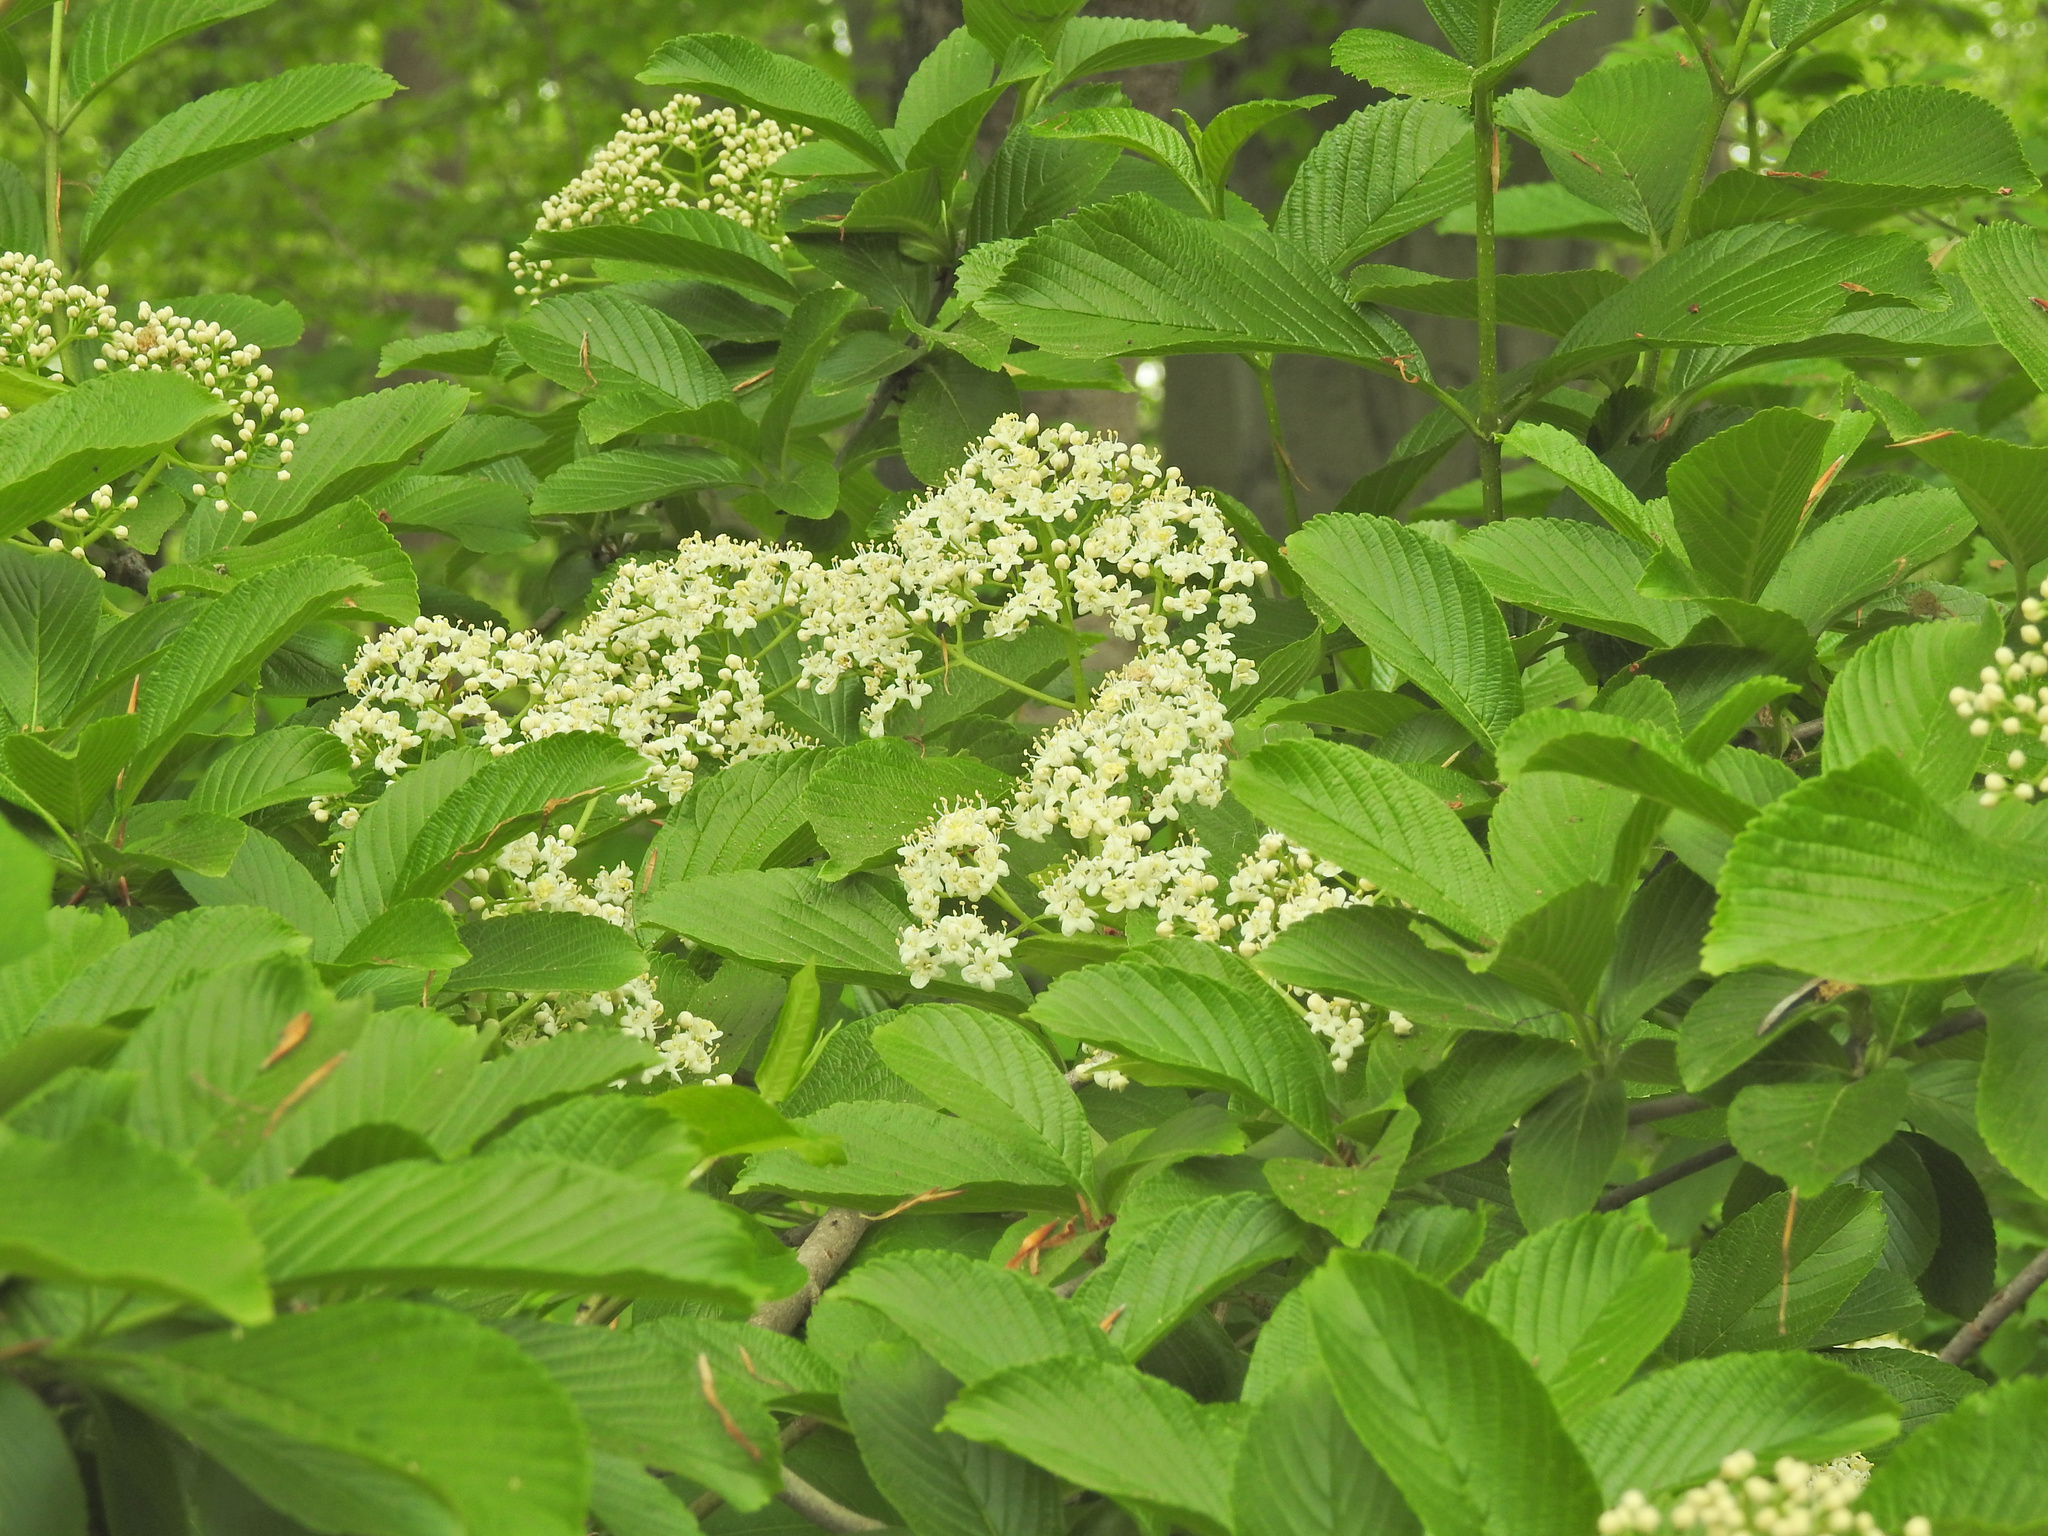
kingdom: Plantae
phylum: Tracheophyta
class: Magnoliopsida
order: Dipsacales
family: Viburnaceae
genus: Viburnum
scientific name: Viburnum sieboldii
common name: Siebold's arrowwood
